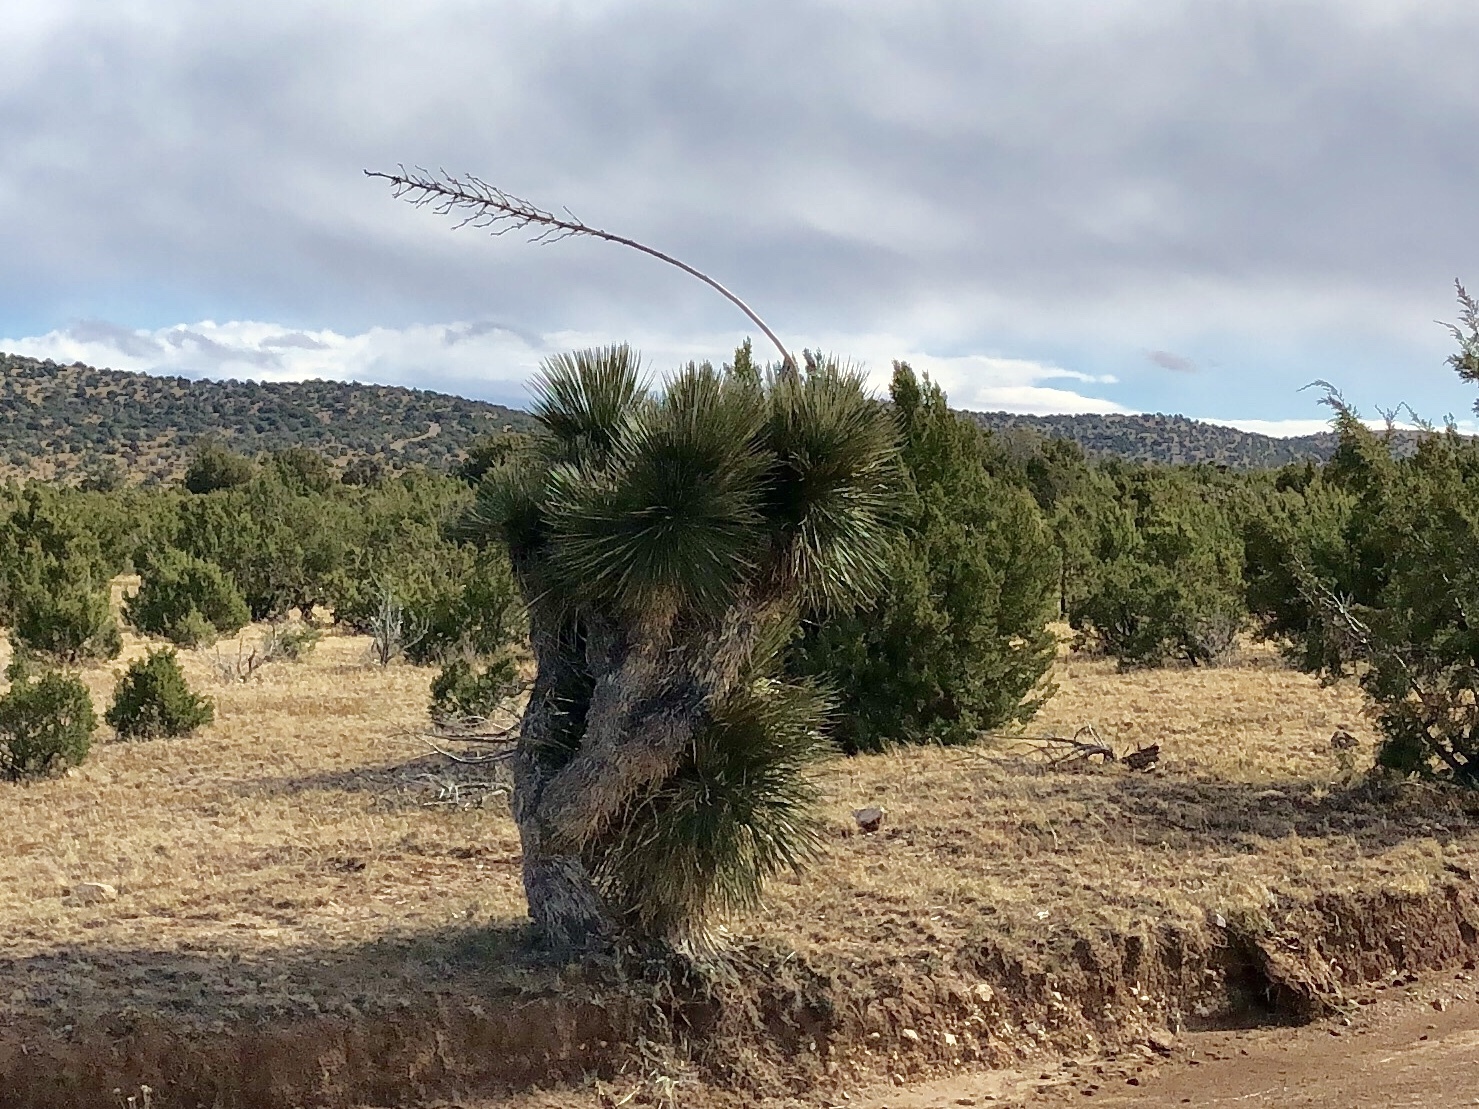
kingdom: Plantae
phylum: Tracheophyta
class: Liliopsida
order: Asparagales
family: Asparagaceae
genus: Yucca
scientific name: Yucca elata
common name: Palmella
